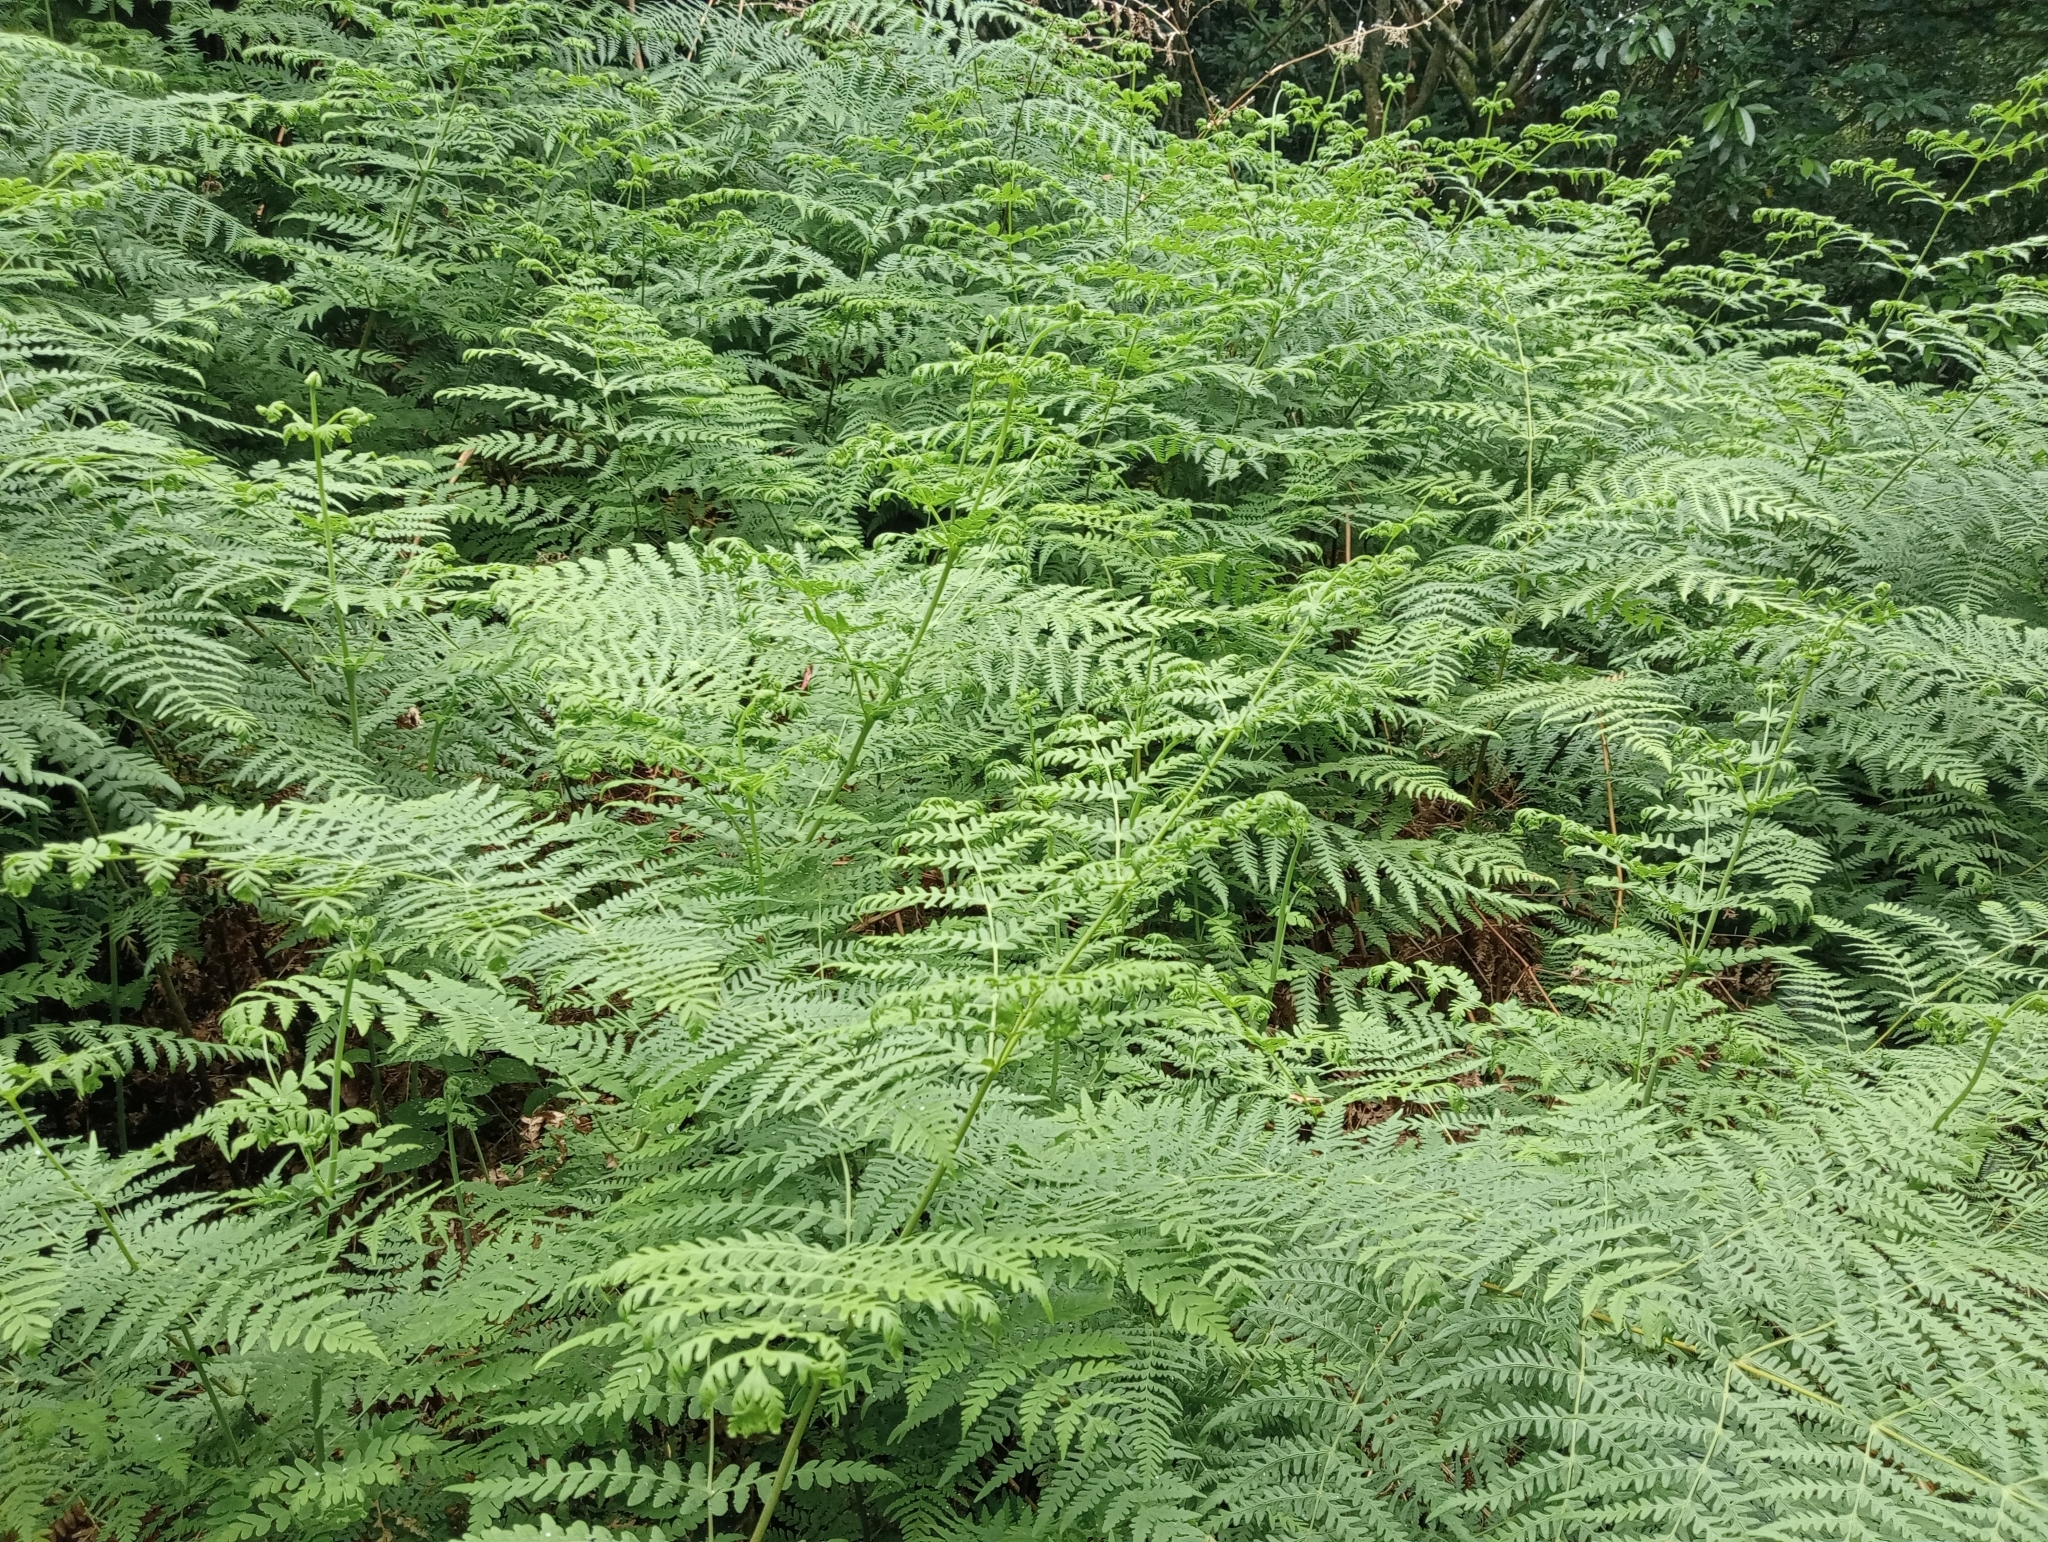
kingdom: Plantae
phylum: Tracheophyta
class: Polypodiopsida
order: Polypodiales
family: Dennstaedtiaceae
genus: Histiopteris
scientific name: Histiopteris incisa
